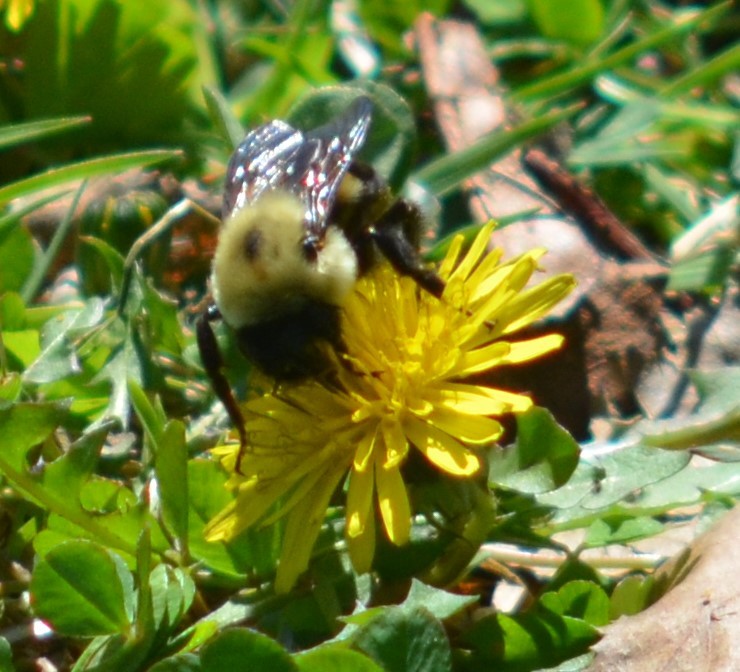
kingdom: Animalia
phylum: Arthropoda
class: Insecta
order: Hymenoptera
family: Apidae
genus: Bombus
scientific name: Bombus griseocollis
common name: Brown-belted bumble bee
